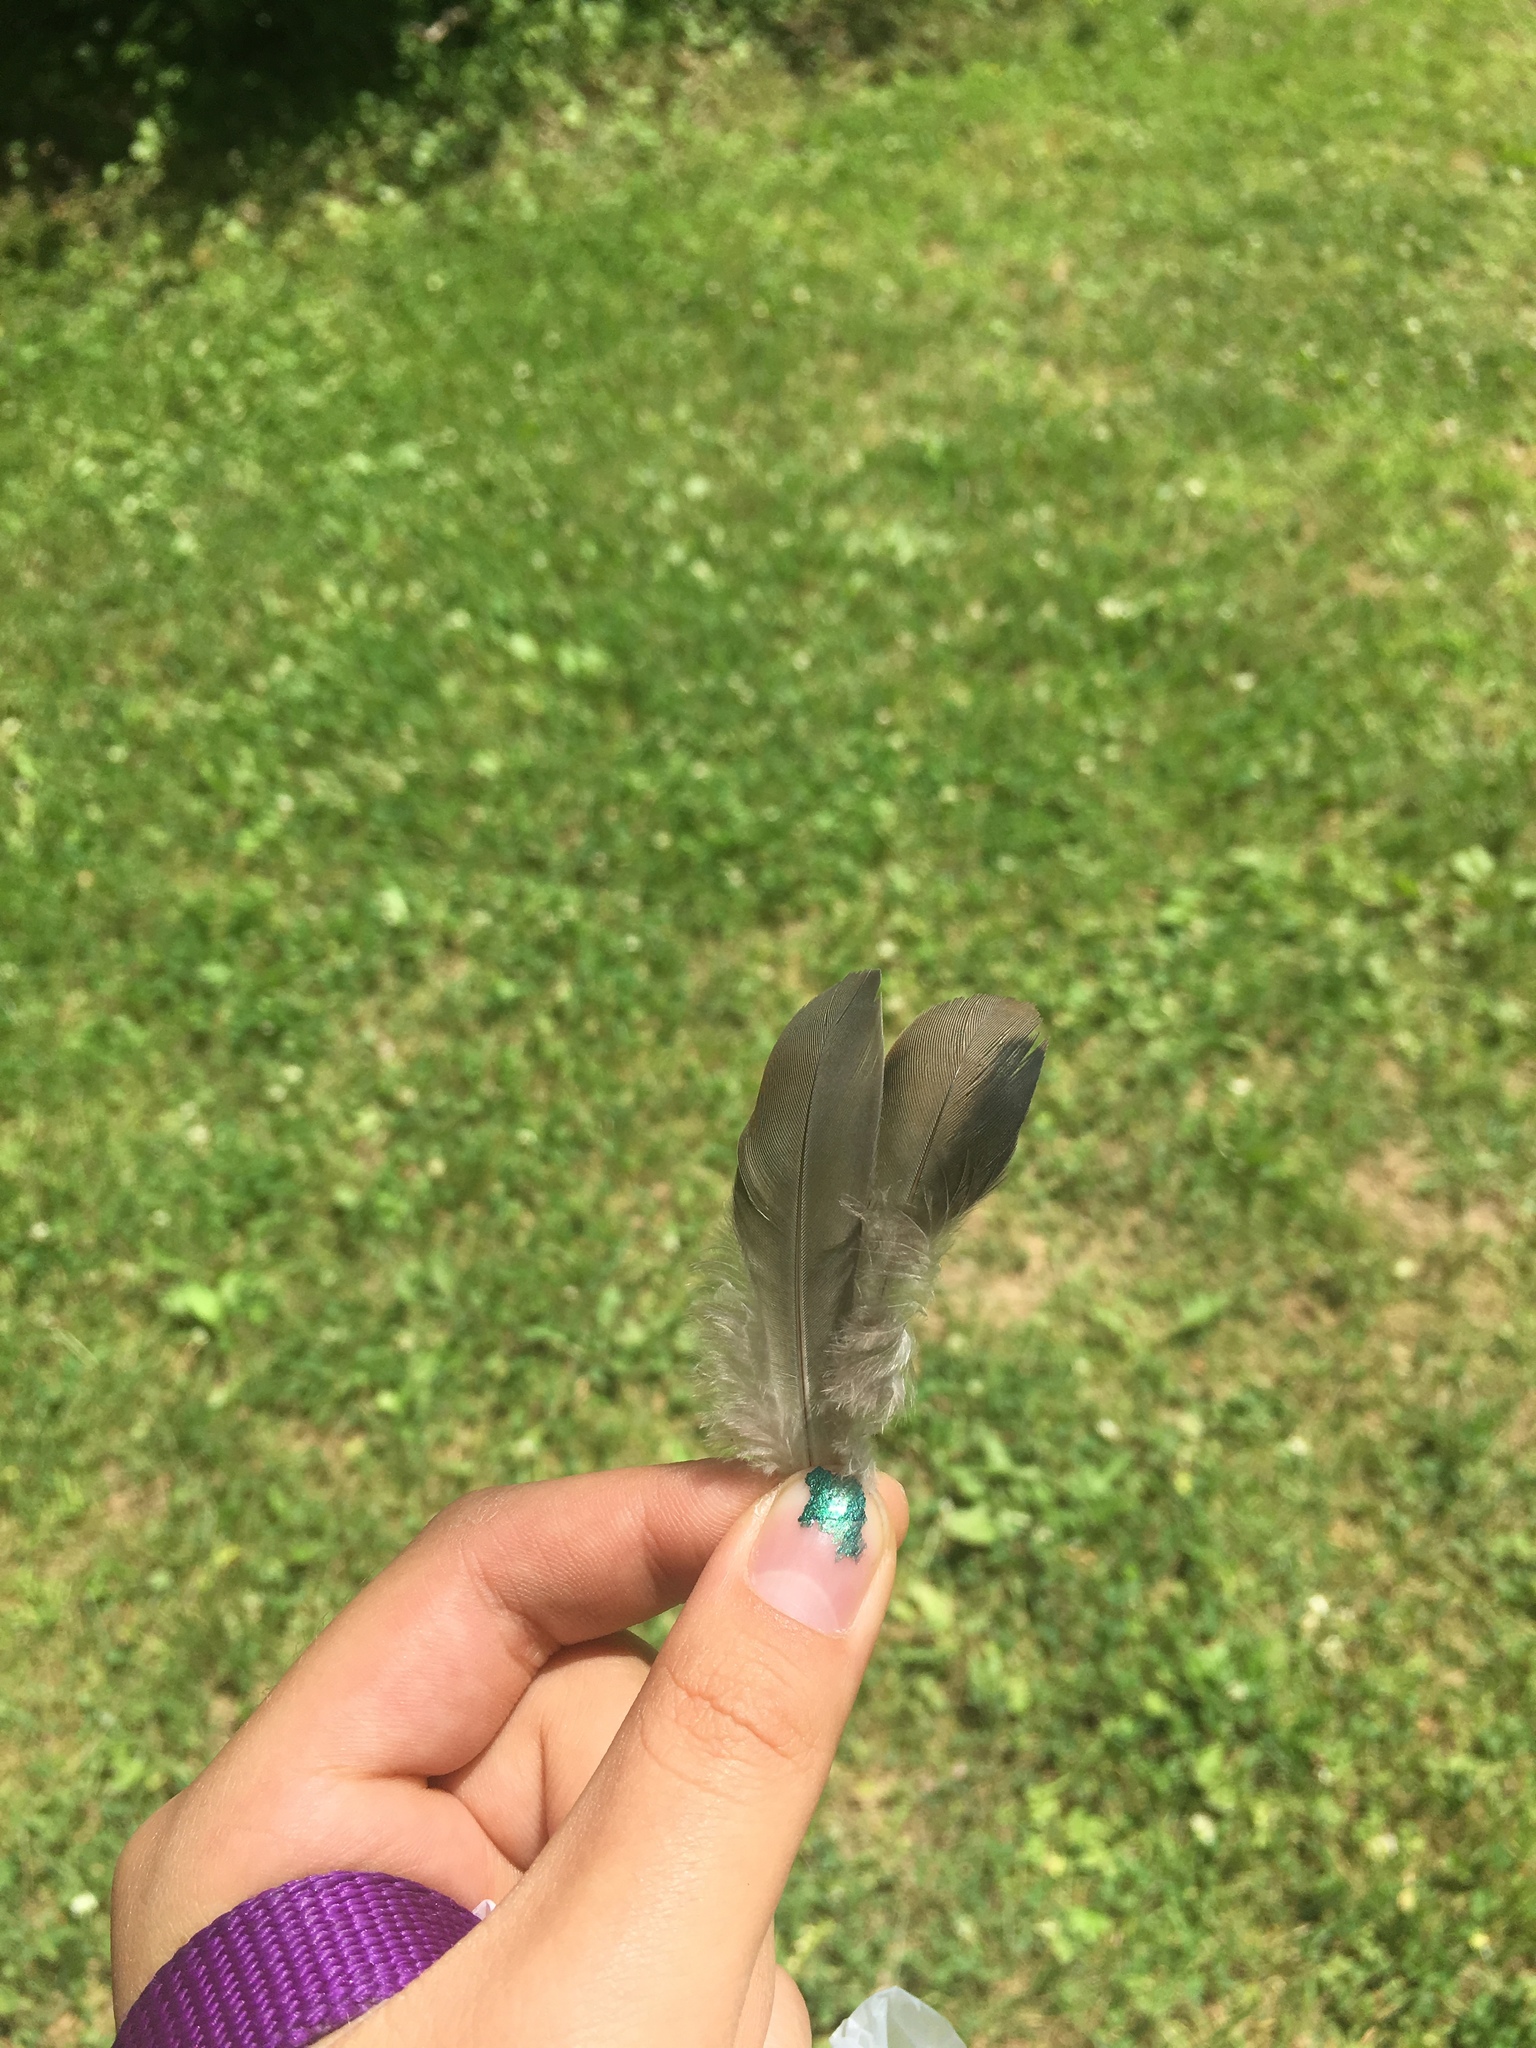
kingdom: Animalia
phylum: Chordata
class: Aves
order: Columbiformes
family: Columbidae
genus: Zenaida
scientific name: Zenaida macroura
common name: Mourning dove
